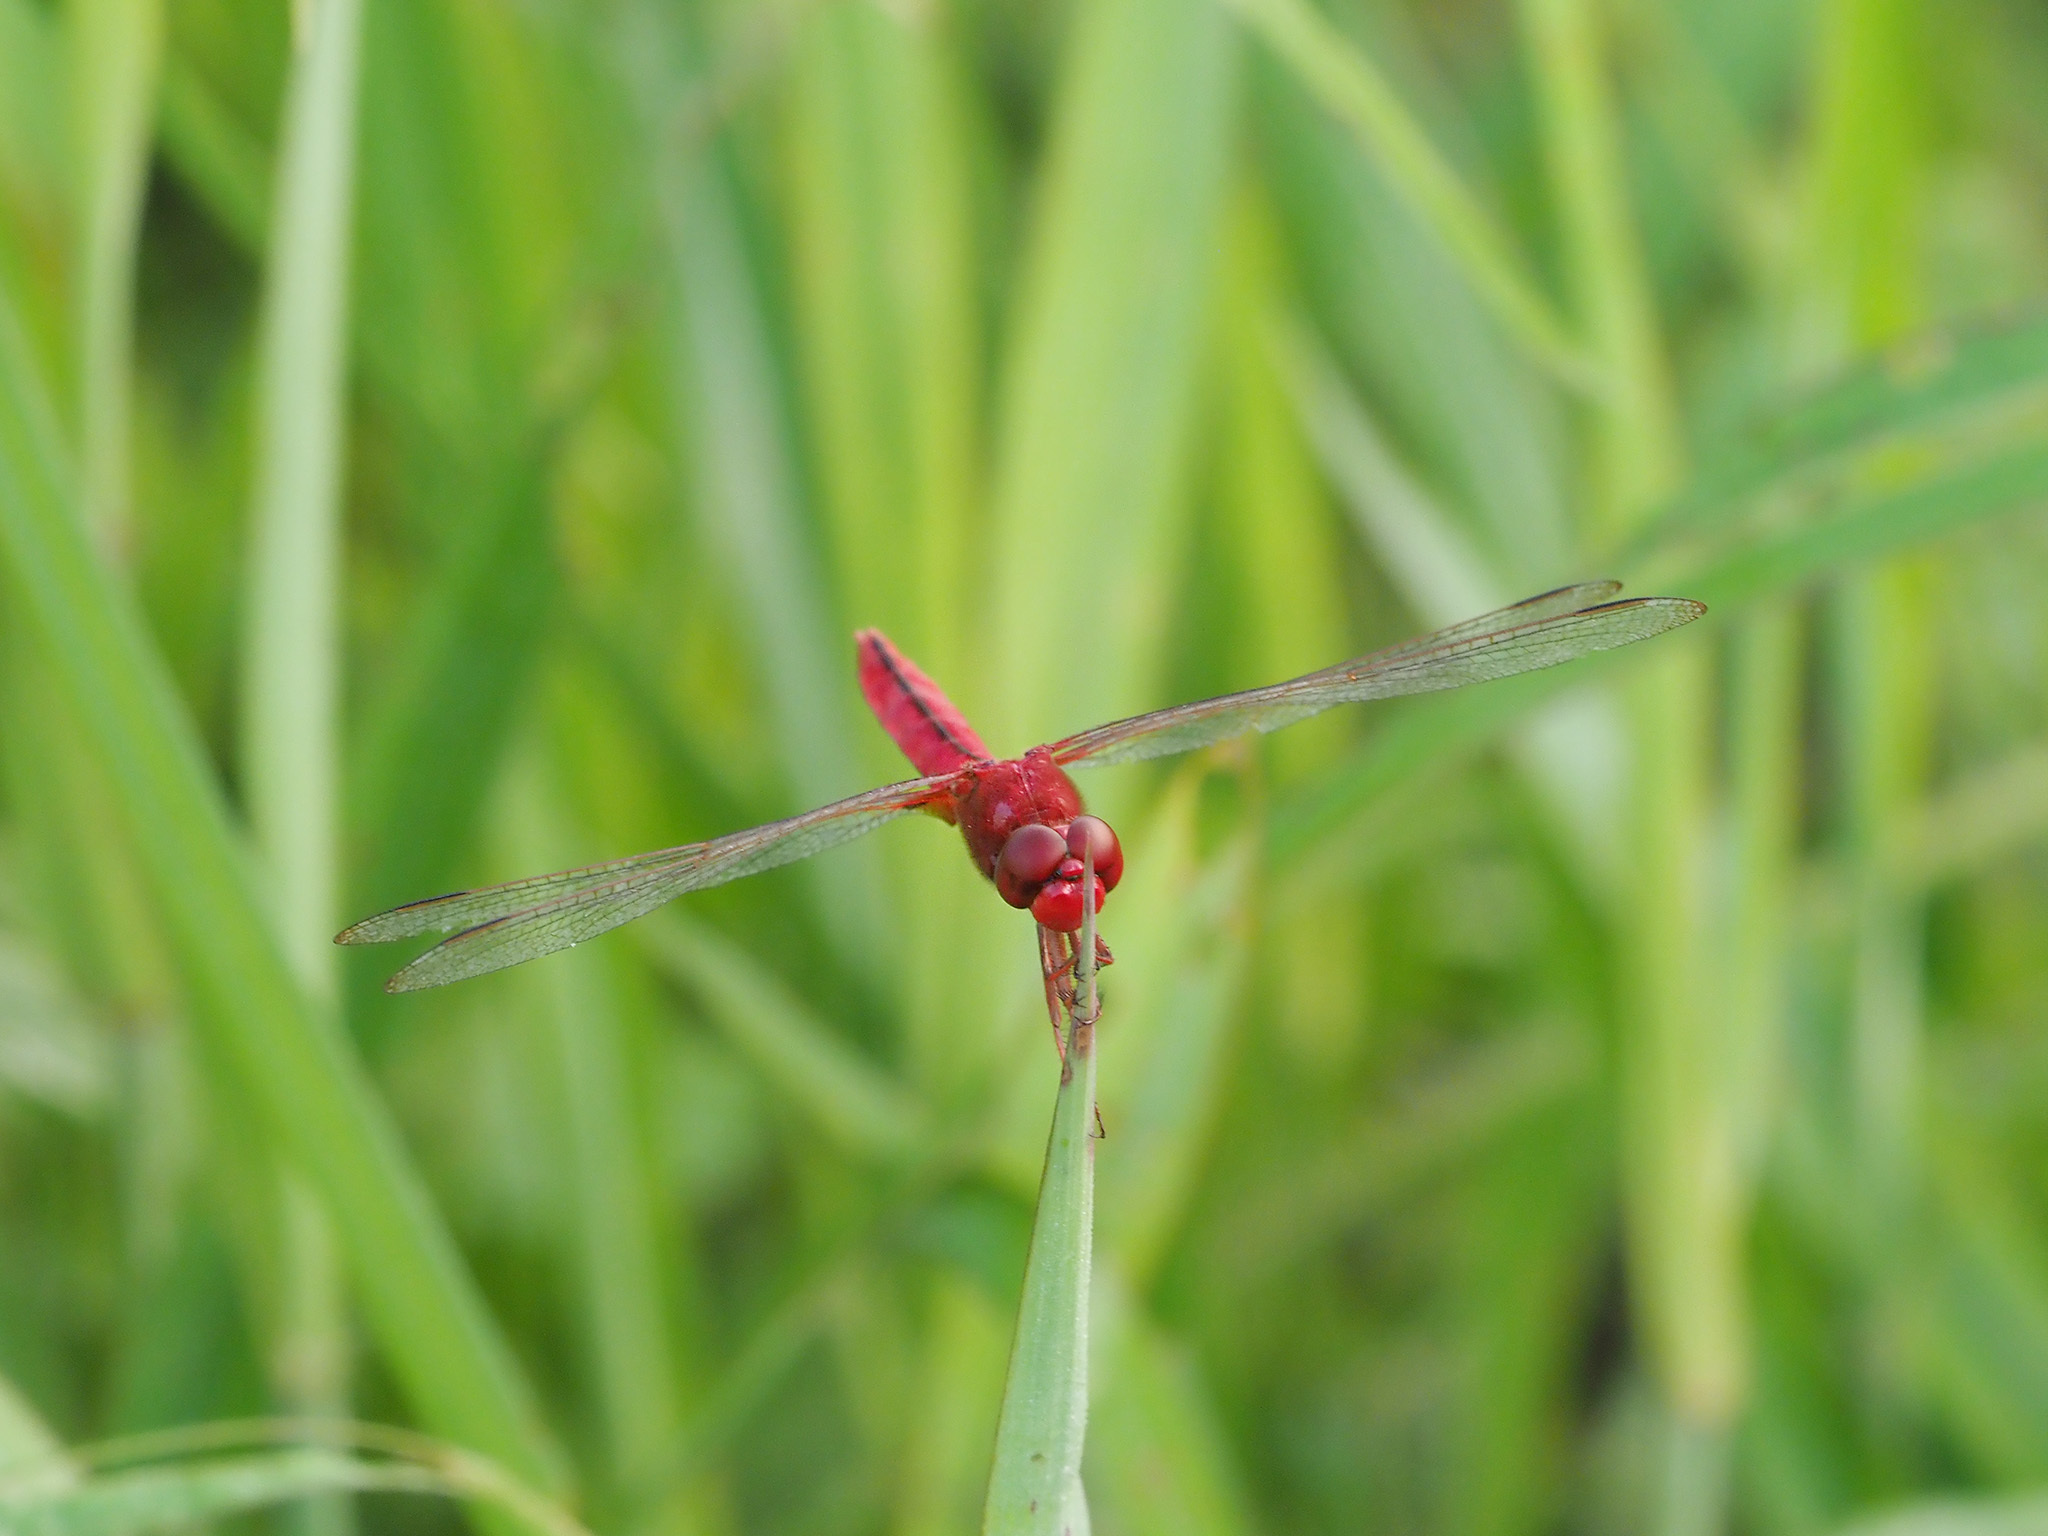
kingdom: Animalia
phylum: Arthropoda
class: Insecta
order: Odonata
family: Libellulidae
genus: Crocothemis
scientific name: Crocothemis servilia
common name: Scarlet skimmer
